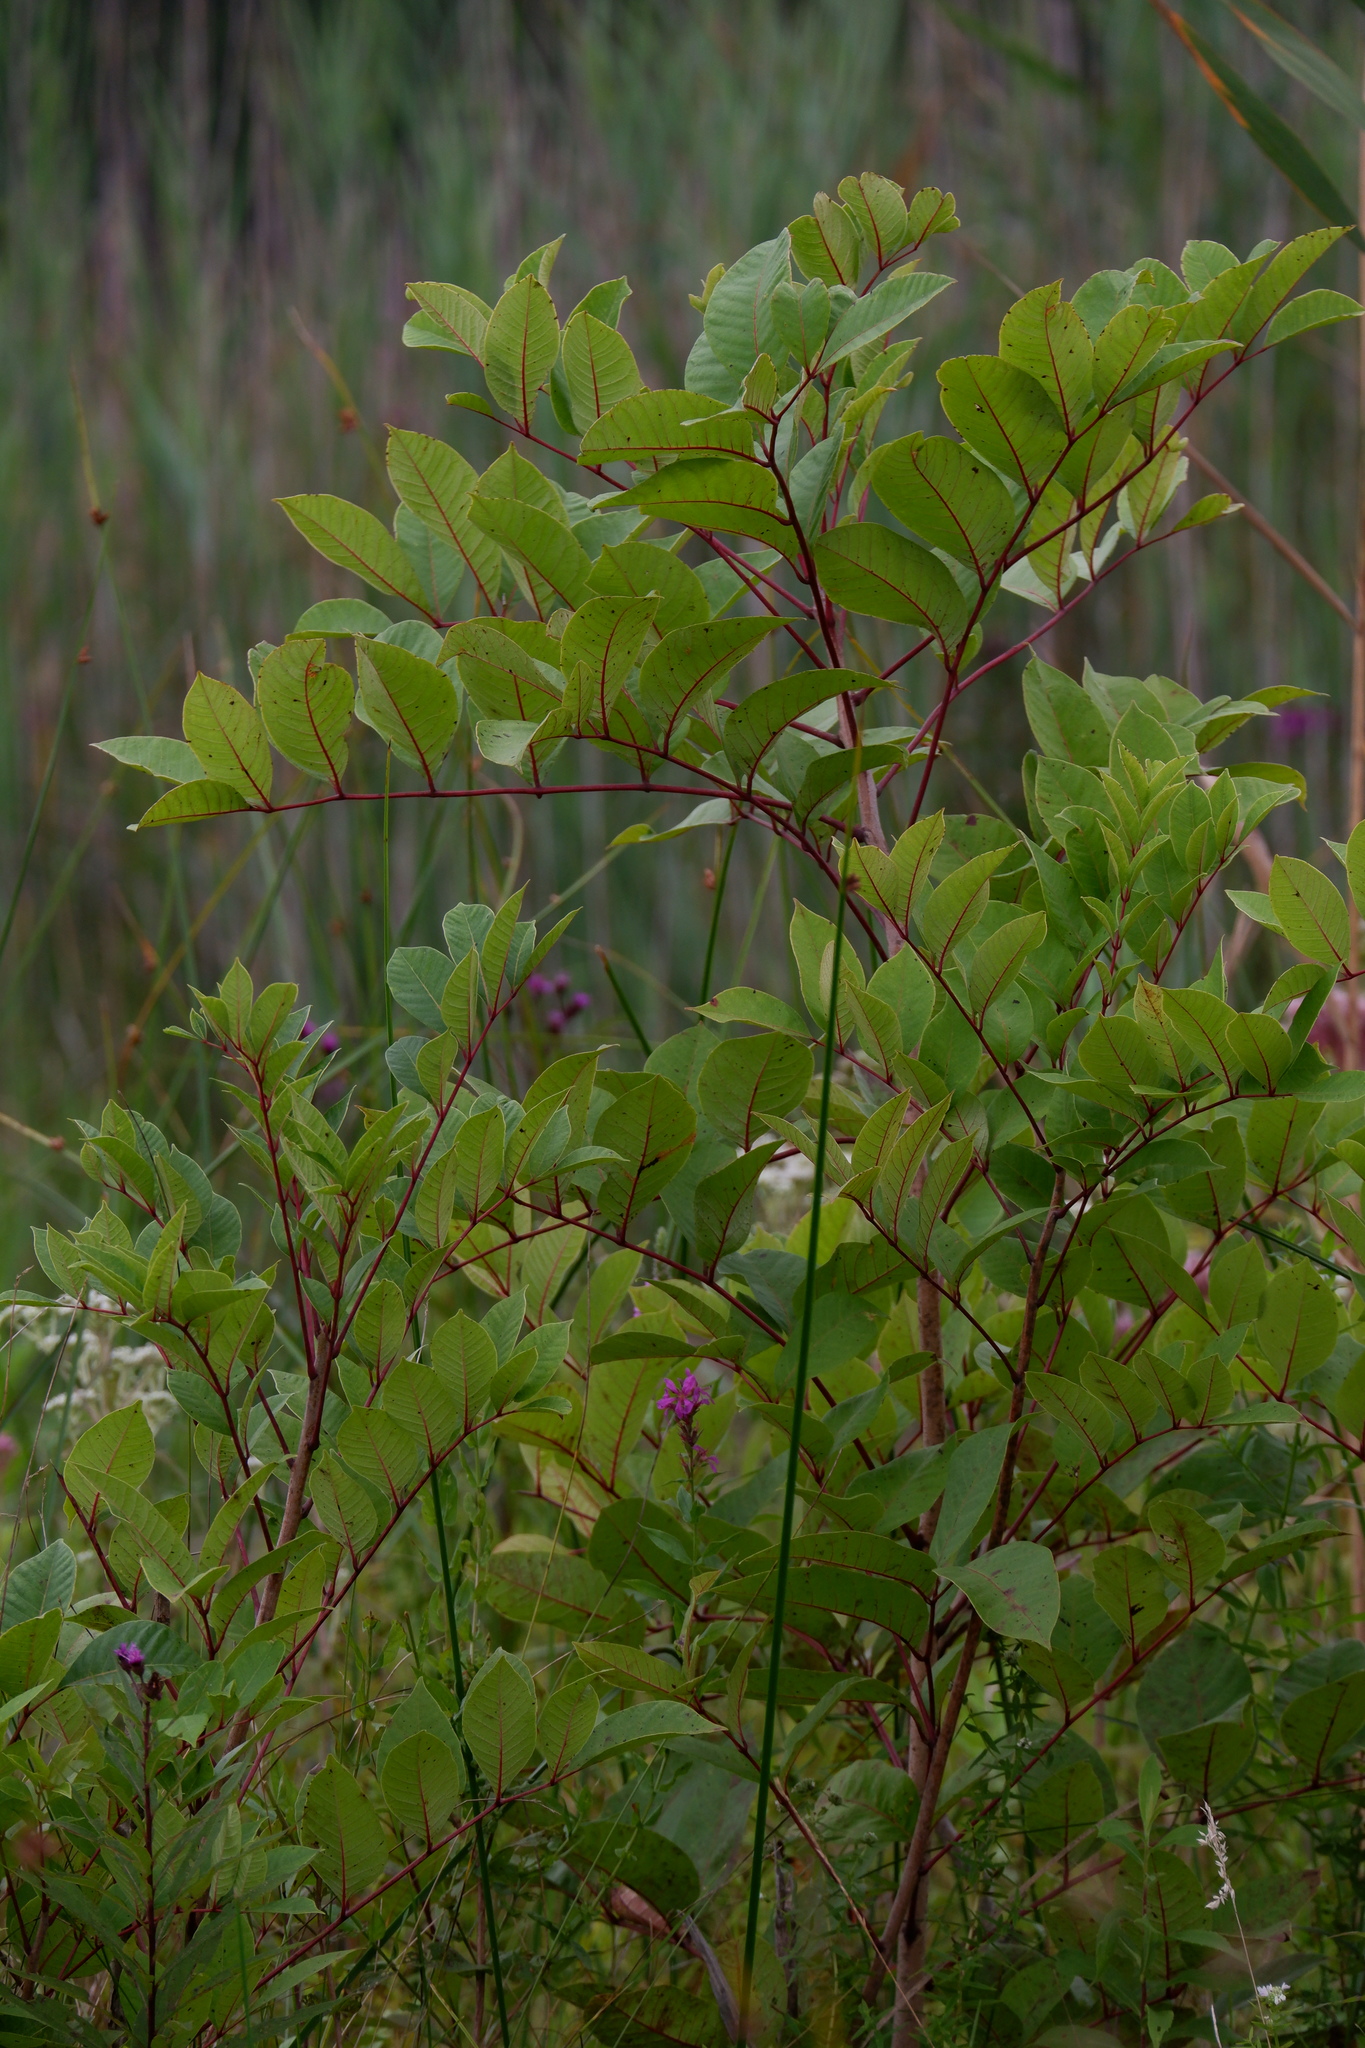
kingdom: Plantae
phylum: Tracheophyta
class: Magnoliopsida
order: Sapindales
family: Anacardiaceae
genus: Toxicodendron
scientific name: Toxicodendron vernix
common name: Poison sumac
